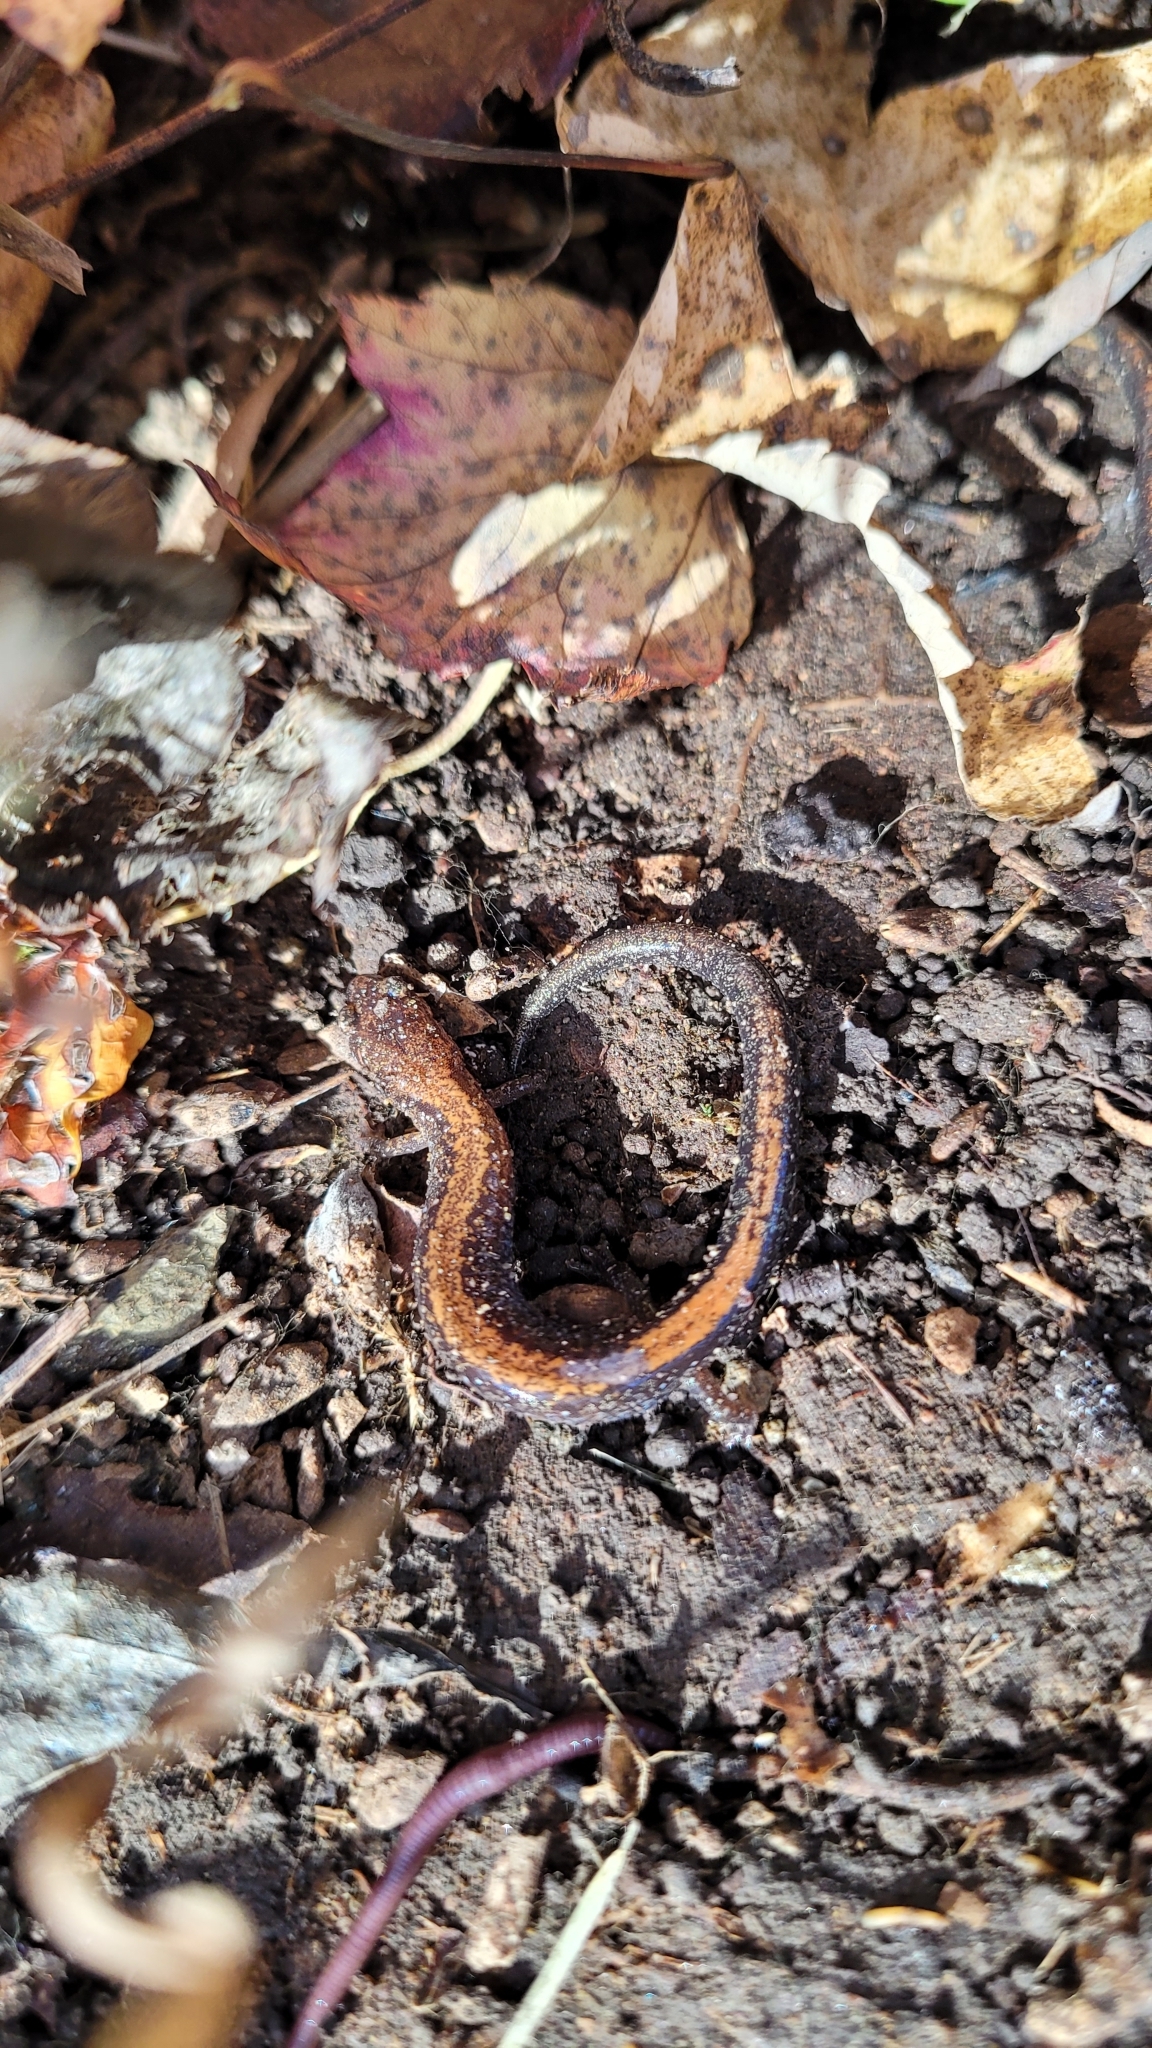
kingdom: Animalia
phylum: Chordata
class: Amphibia
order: Caudata
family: Plethodontidae
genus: Plethodon
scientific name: Plethodon cinereus
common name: Redback salamander
